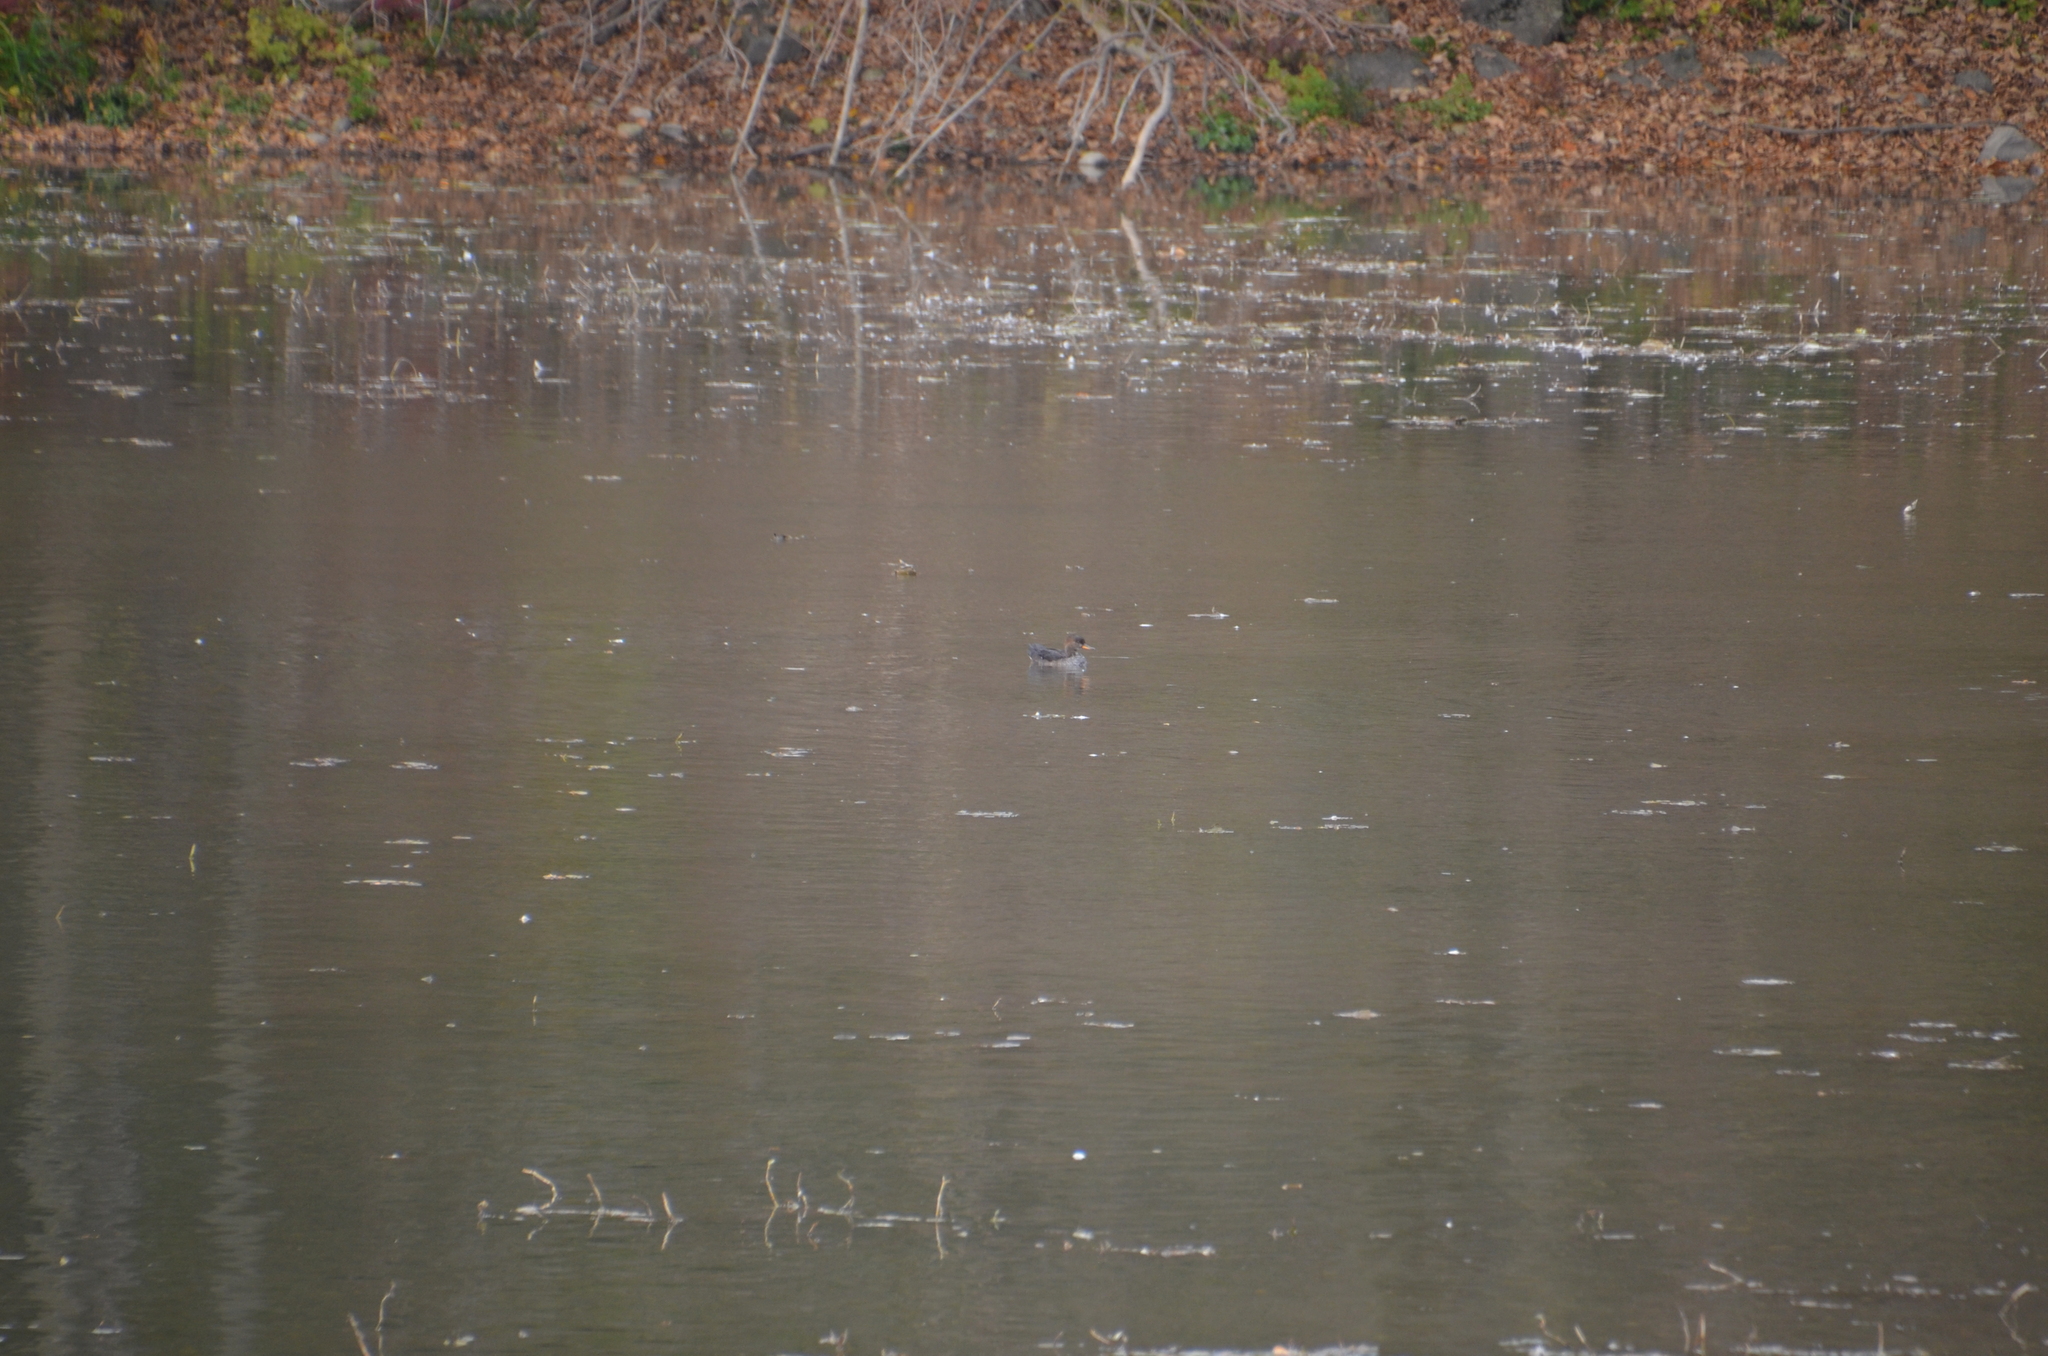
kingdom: Animalia
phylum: Chordata
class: Aves
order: Anseriformes
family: Anatidae
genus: Lophodytes
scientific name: Lophodytes cucullatus
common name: Hooded merganser
